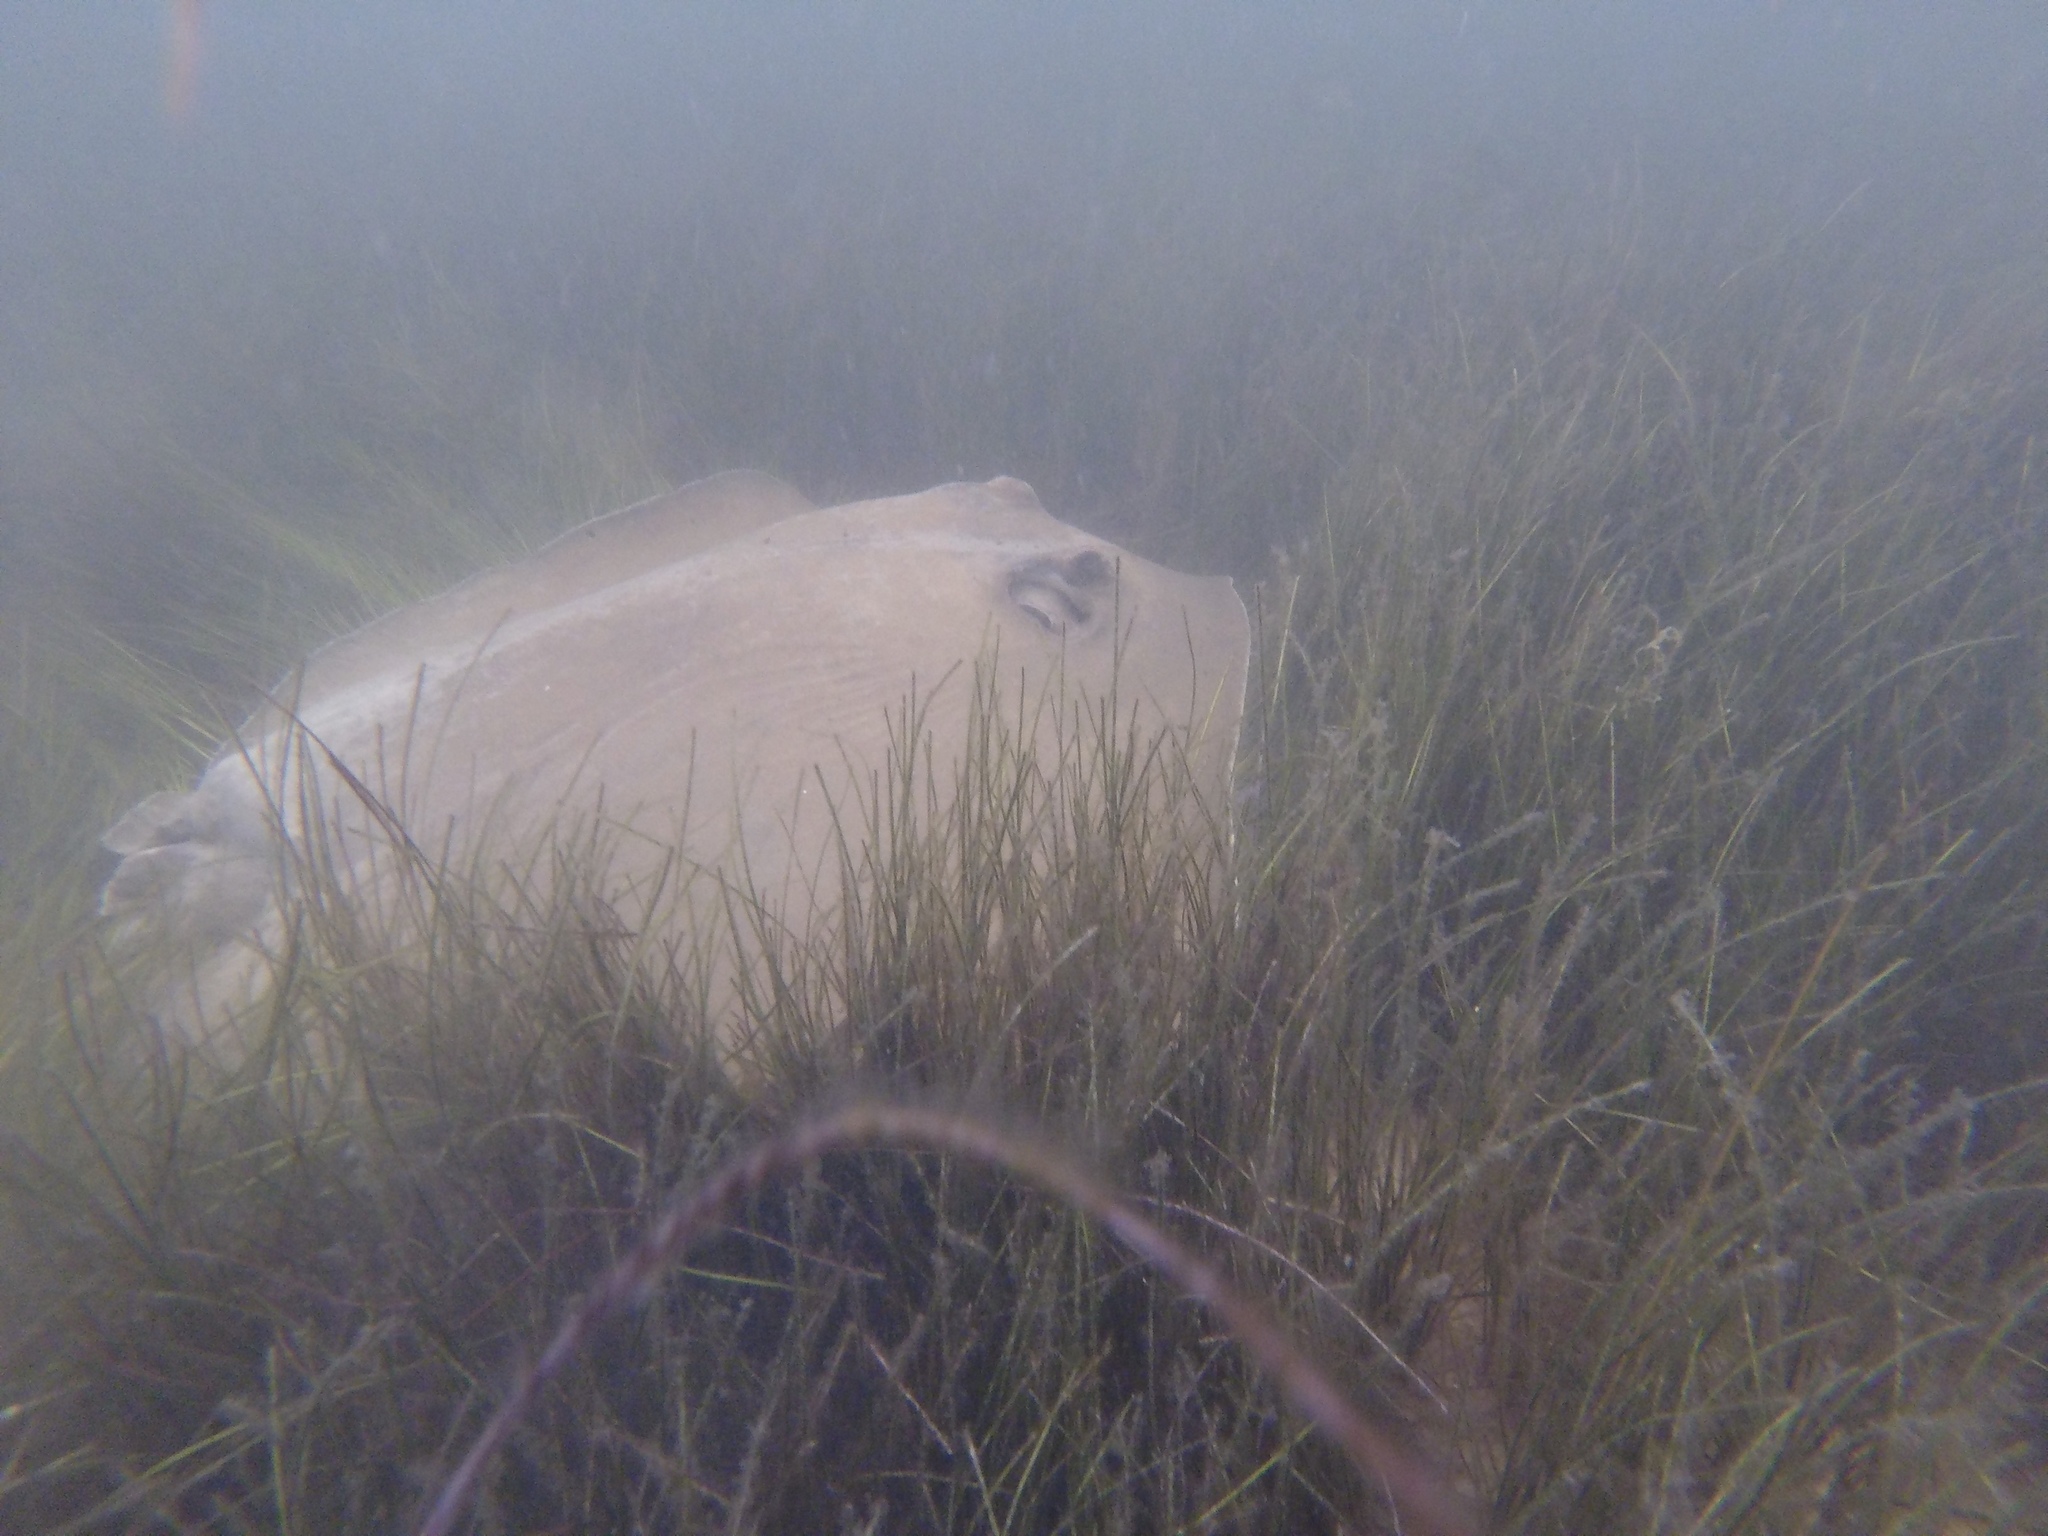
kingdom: Animalia
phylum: Chordata
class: Elasmobranchii
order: Myliobatiformes
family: Dasyatidae
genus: Hypanus
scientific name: Hypanus
